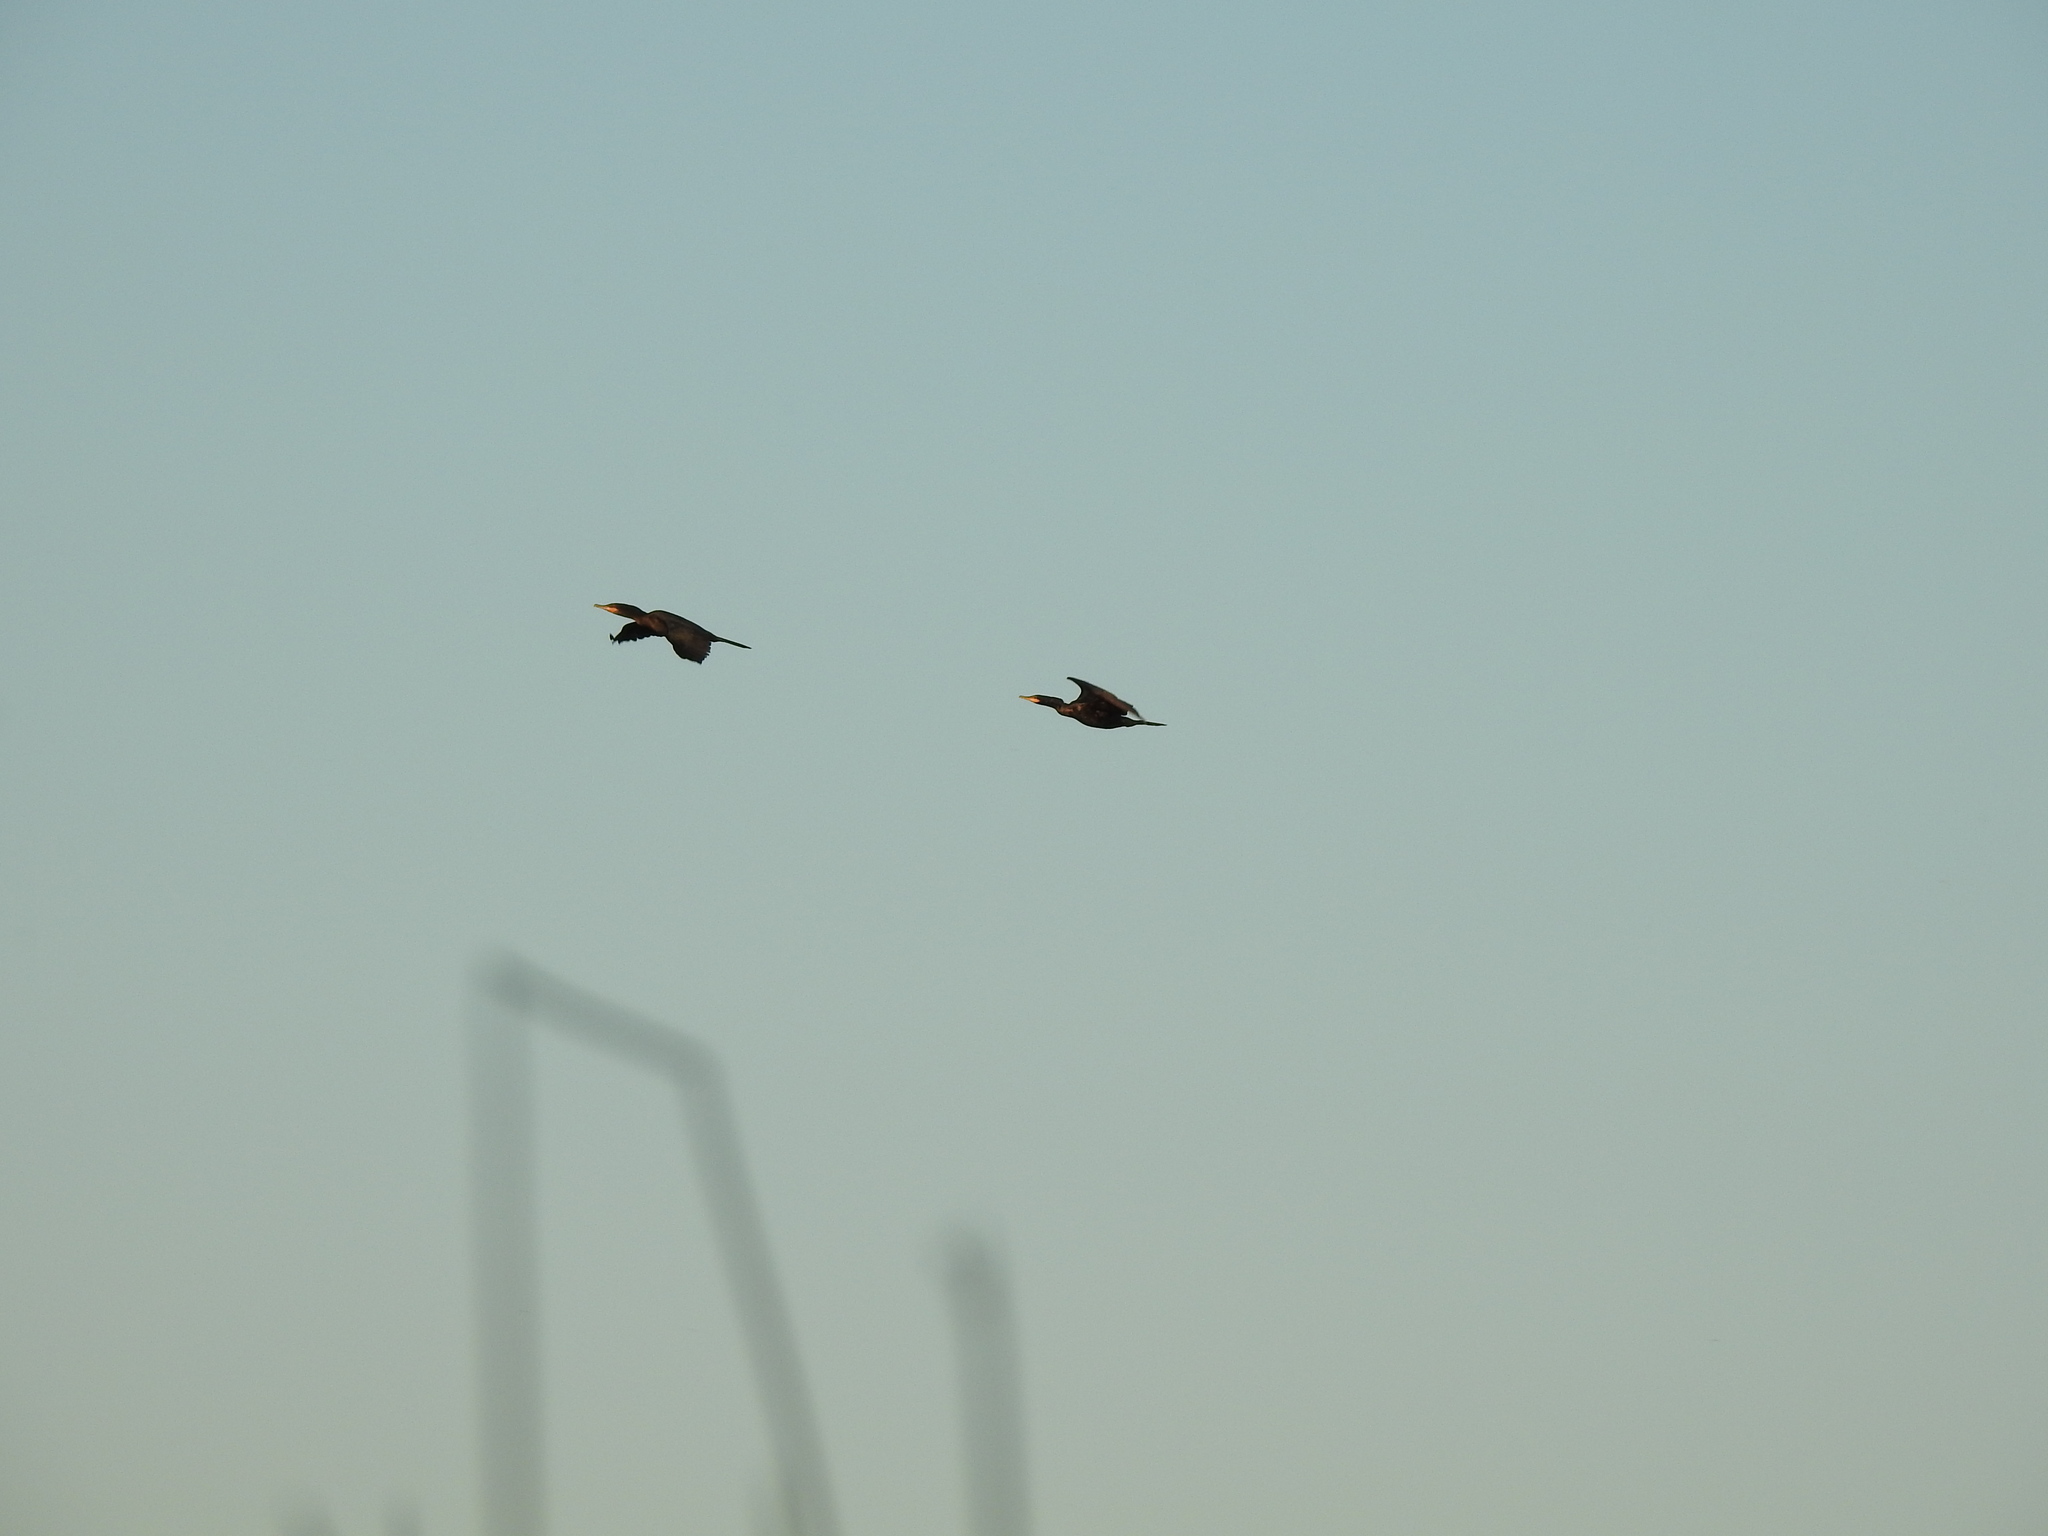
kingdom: Animalia
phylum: Chordata
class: Aves
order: Suliformes
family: Phalacrocoracidae
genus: Phalacrocorax
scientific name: Phalacrocorax brasilianus
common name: Neotropic cormorant
